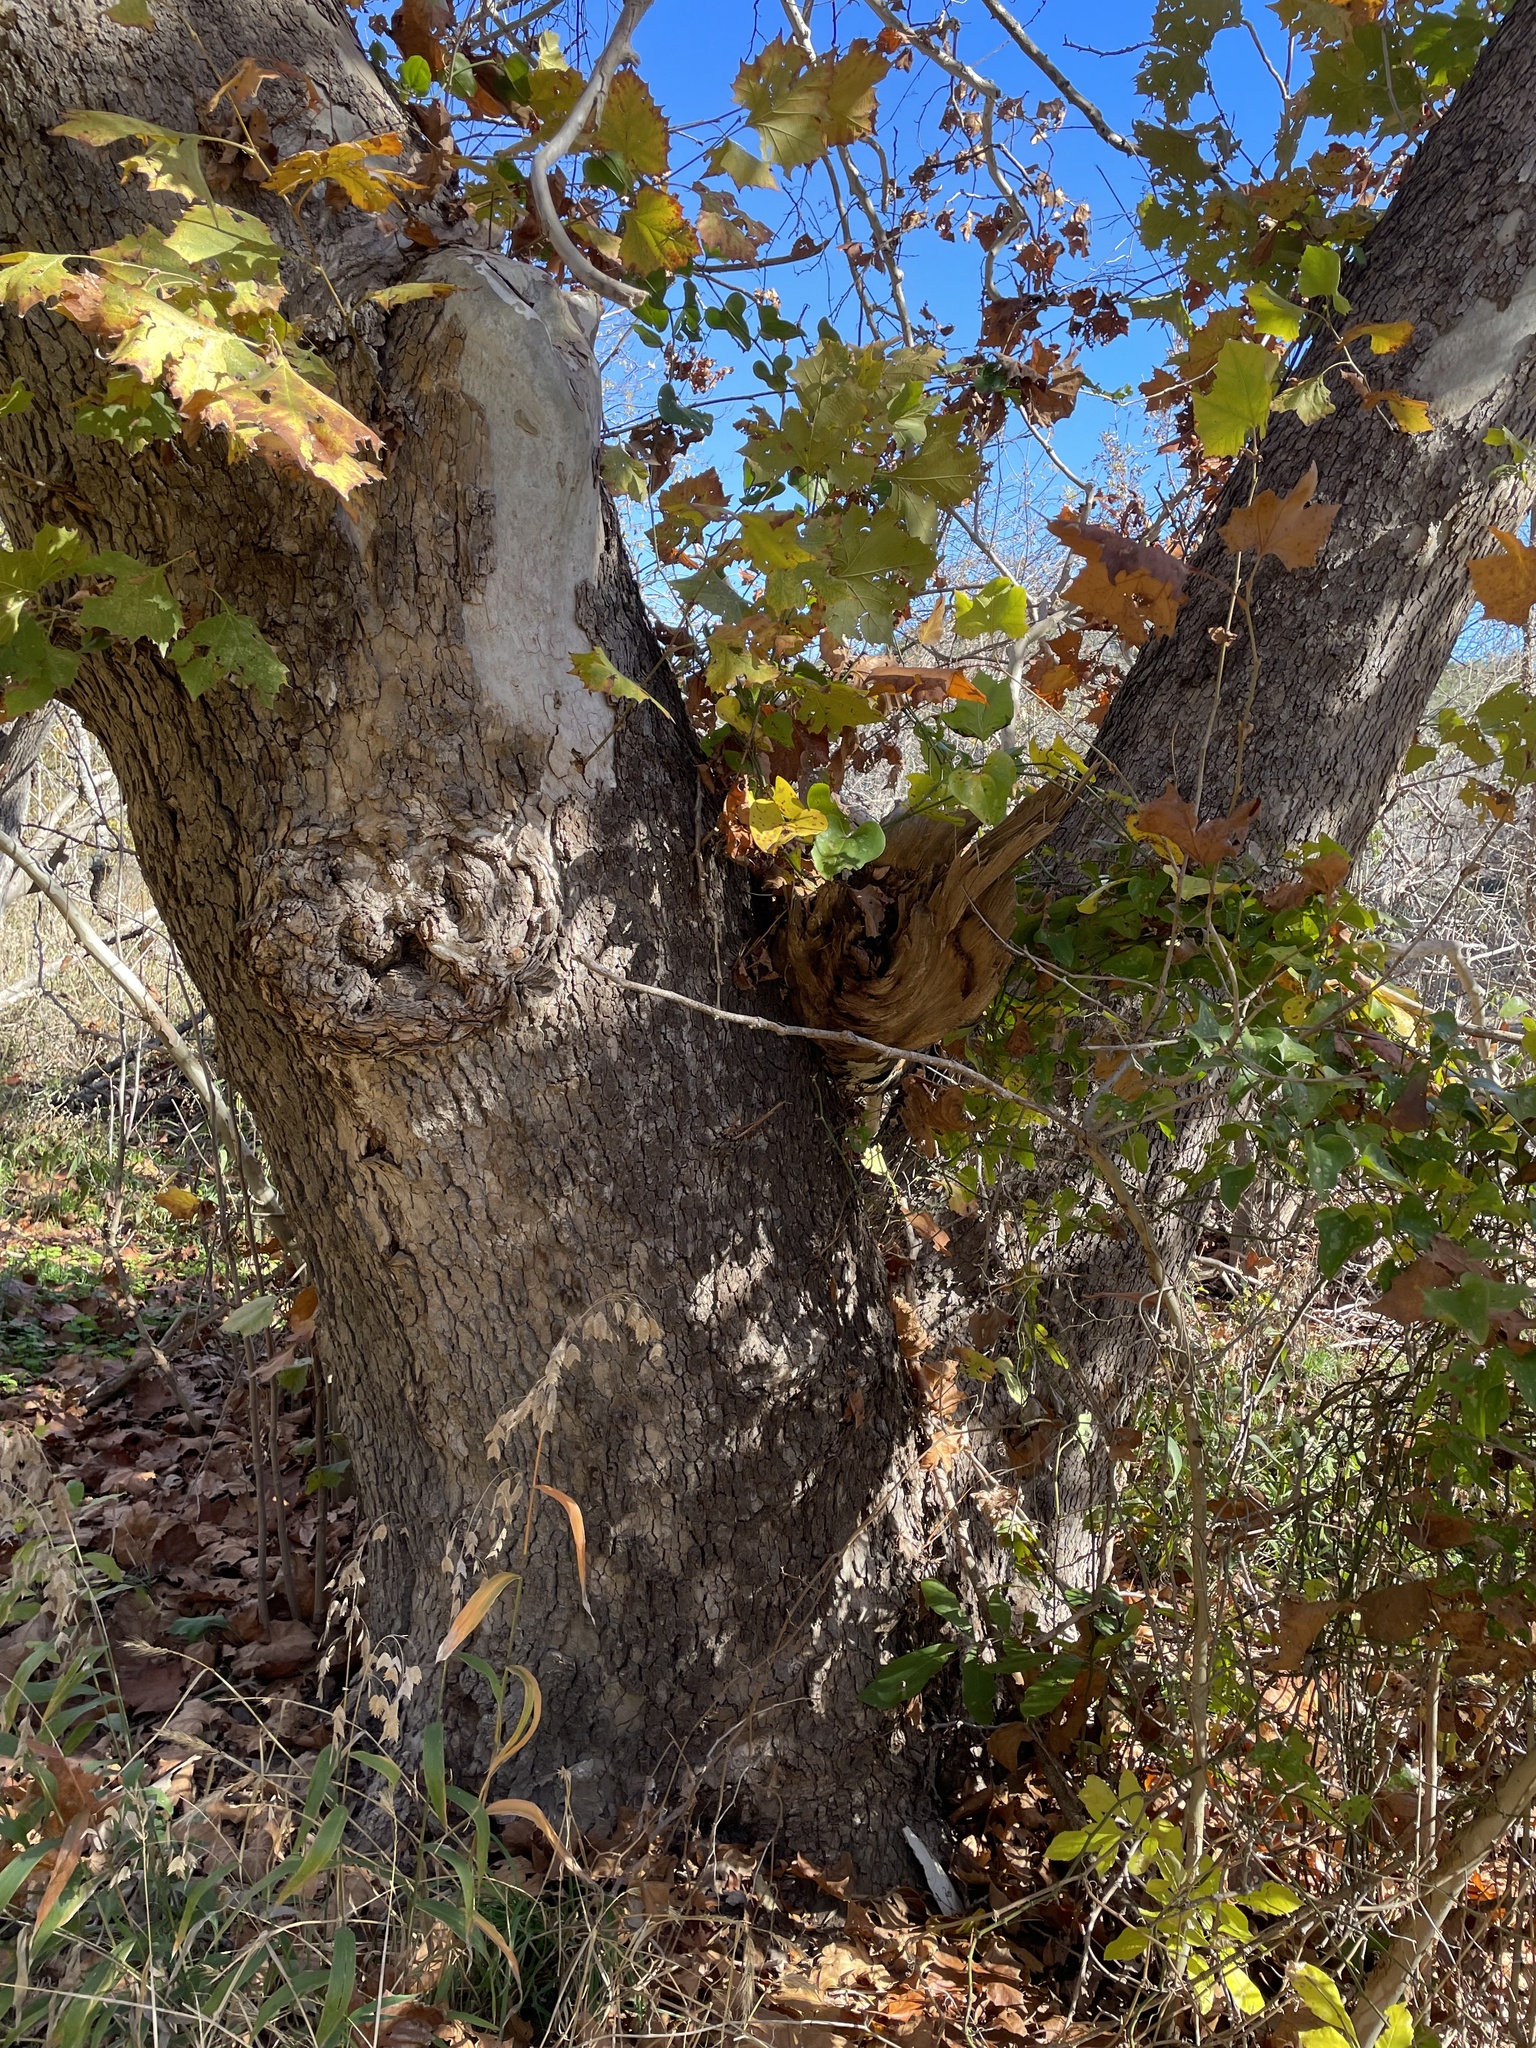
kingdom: Plantae
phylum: Tracheophyta
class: Magnoliopsida
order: Proteales
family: Platanaceae
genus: Platanus
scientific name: Platanus occidentalis
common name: American sycamore
